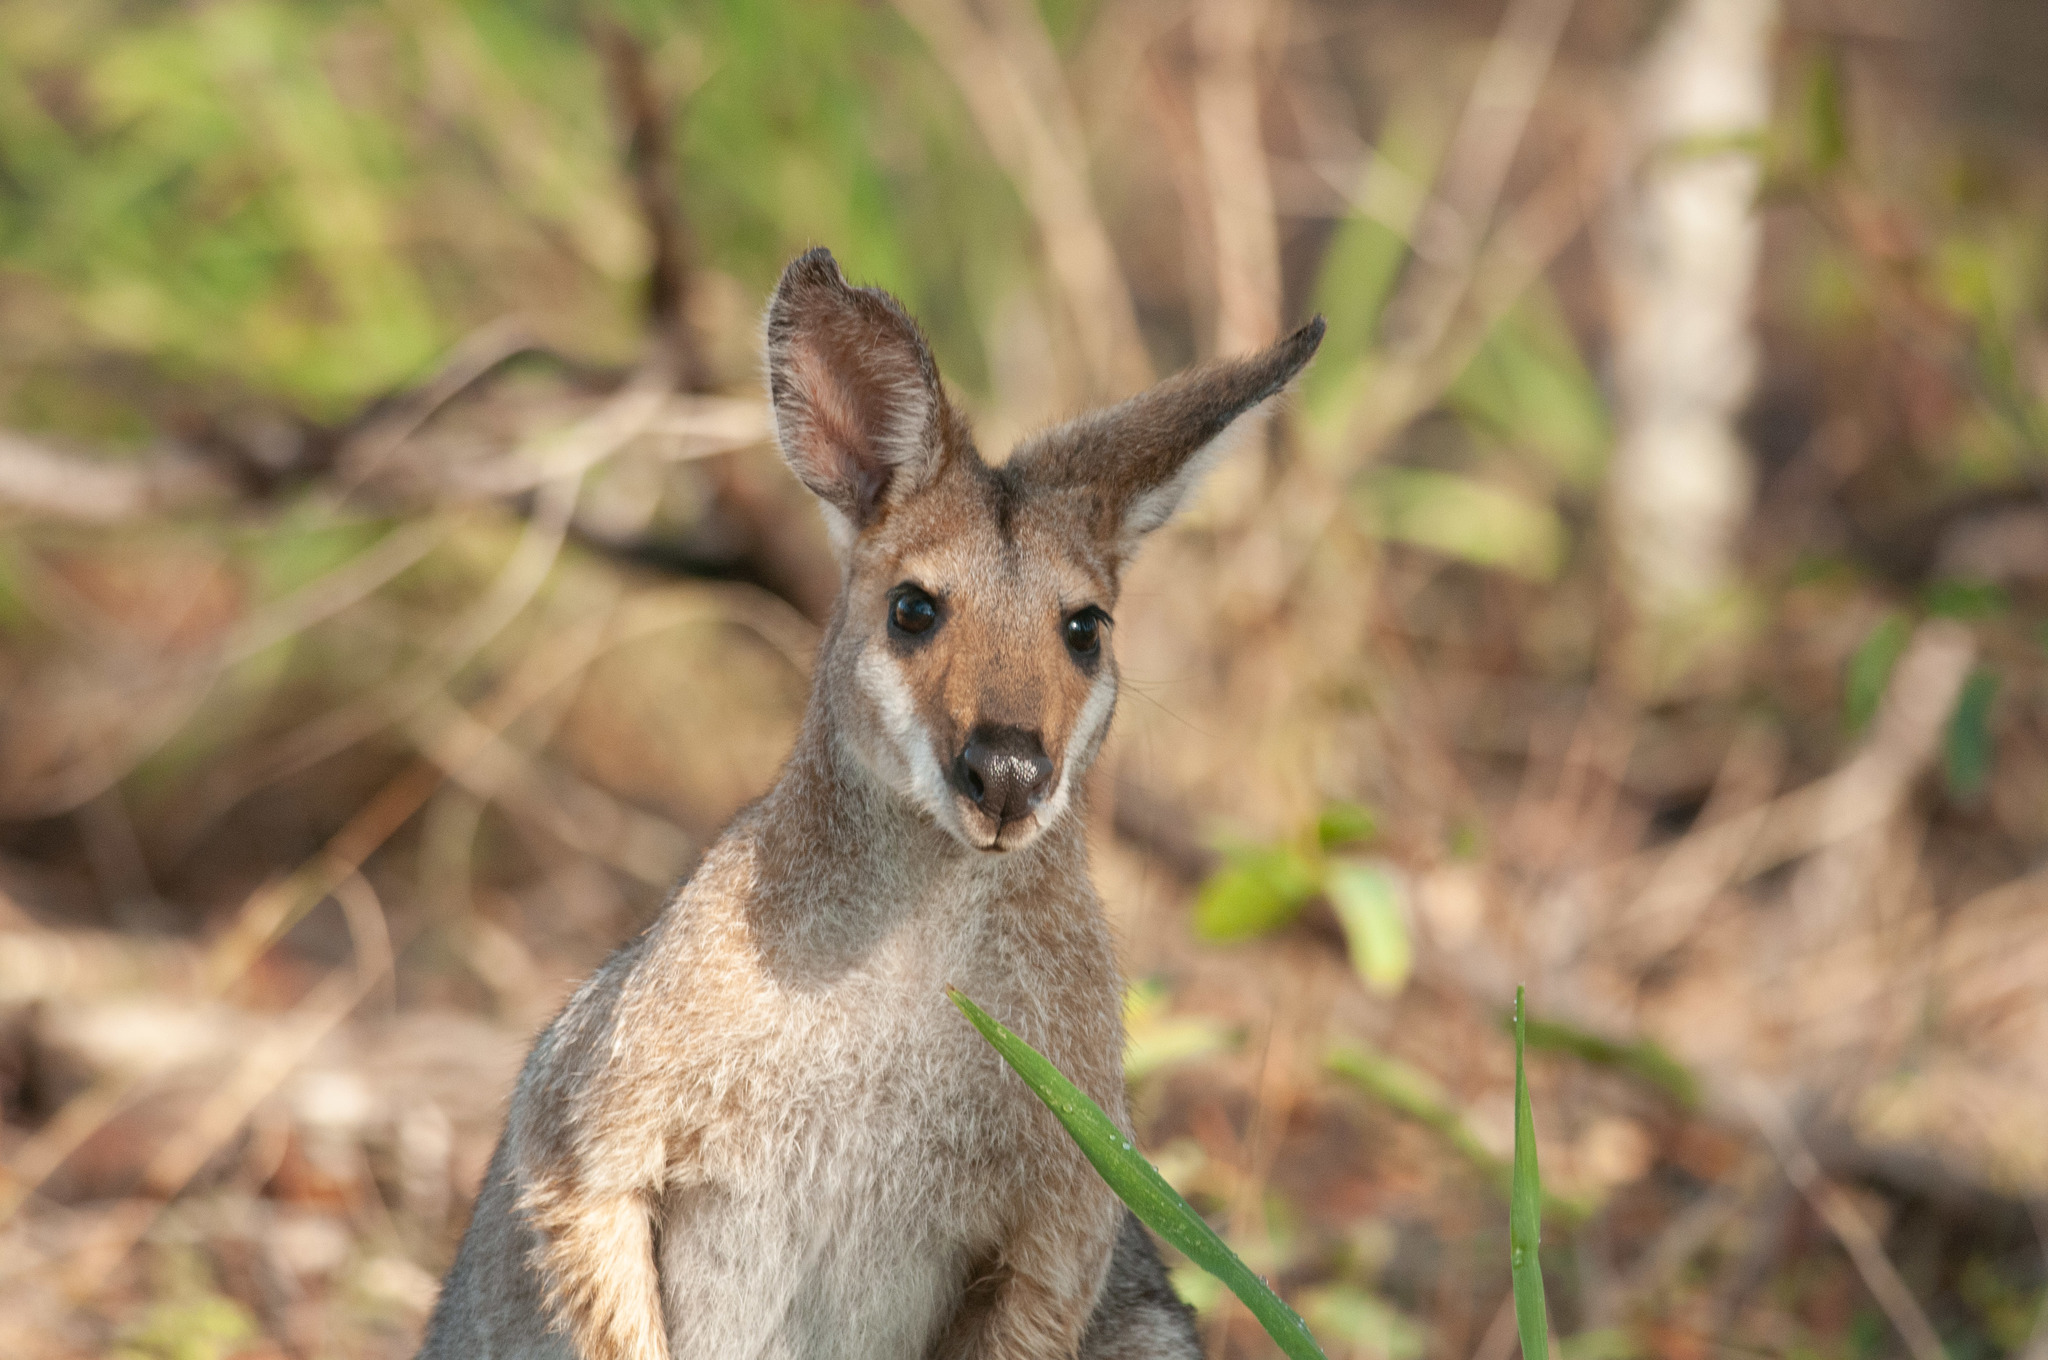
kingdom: Animalia
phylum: Chordata
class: Mammalia
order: Diprotodontia
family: Macropodidae
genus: Notamacropus
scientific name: Notamacropus rufogriseus
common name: Red-necked wallaby
